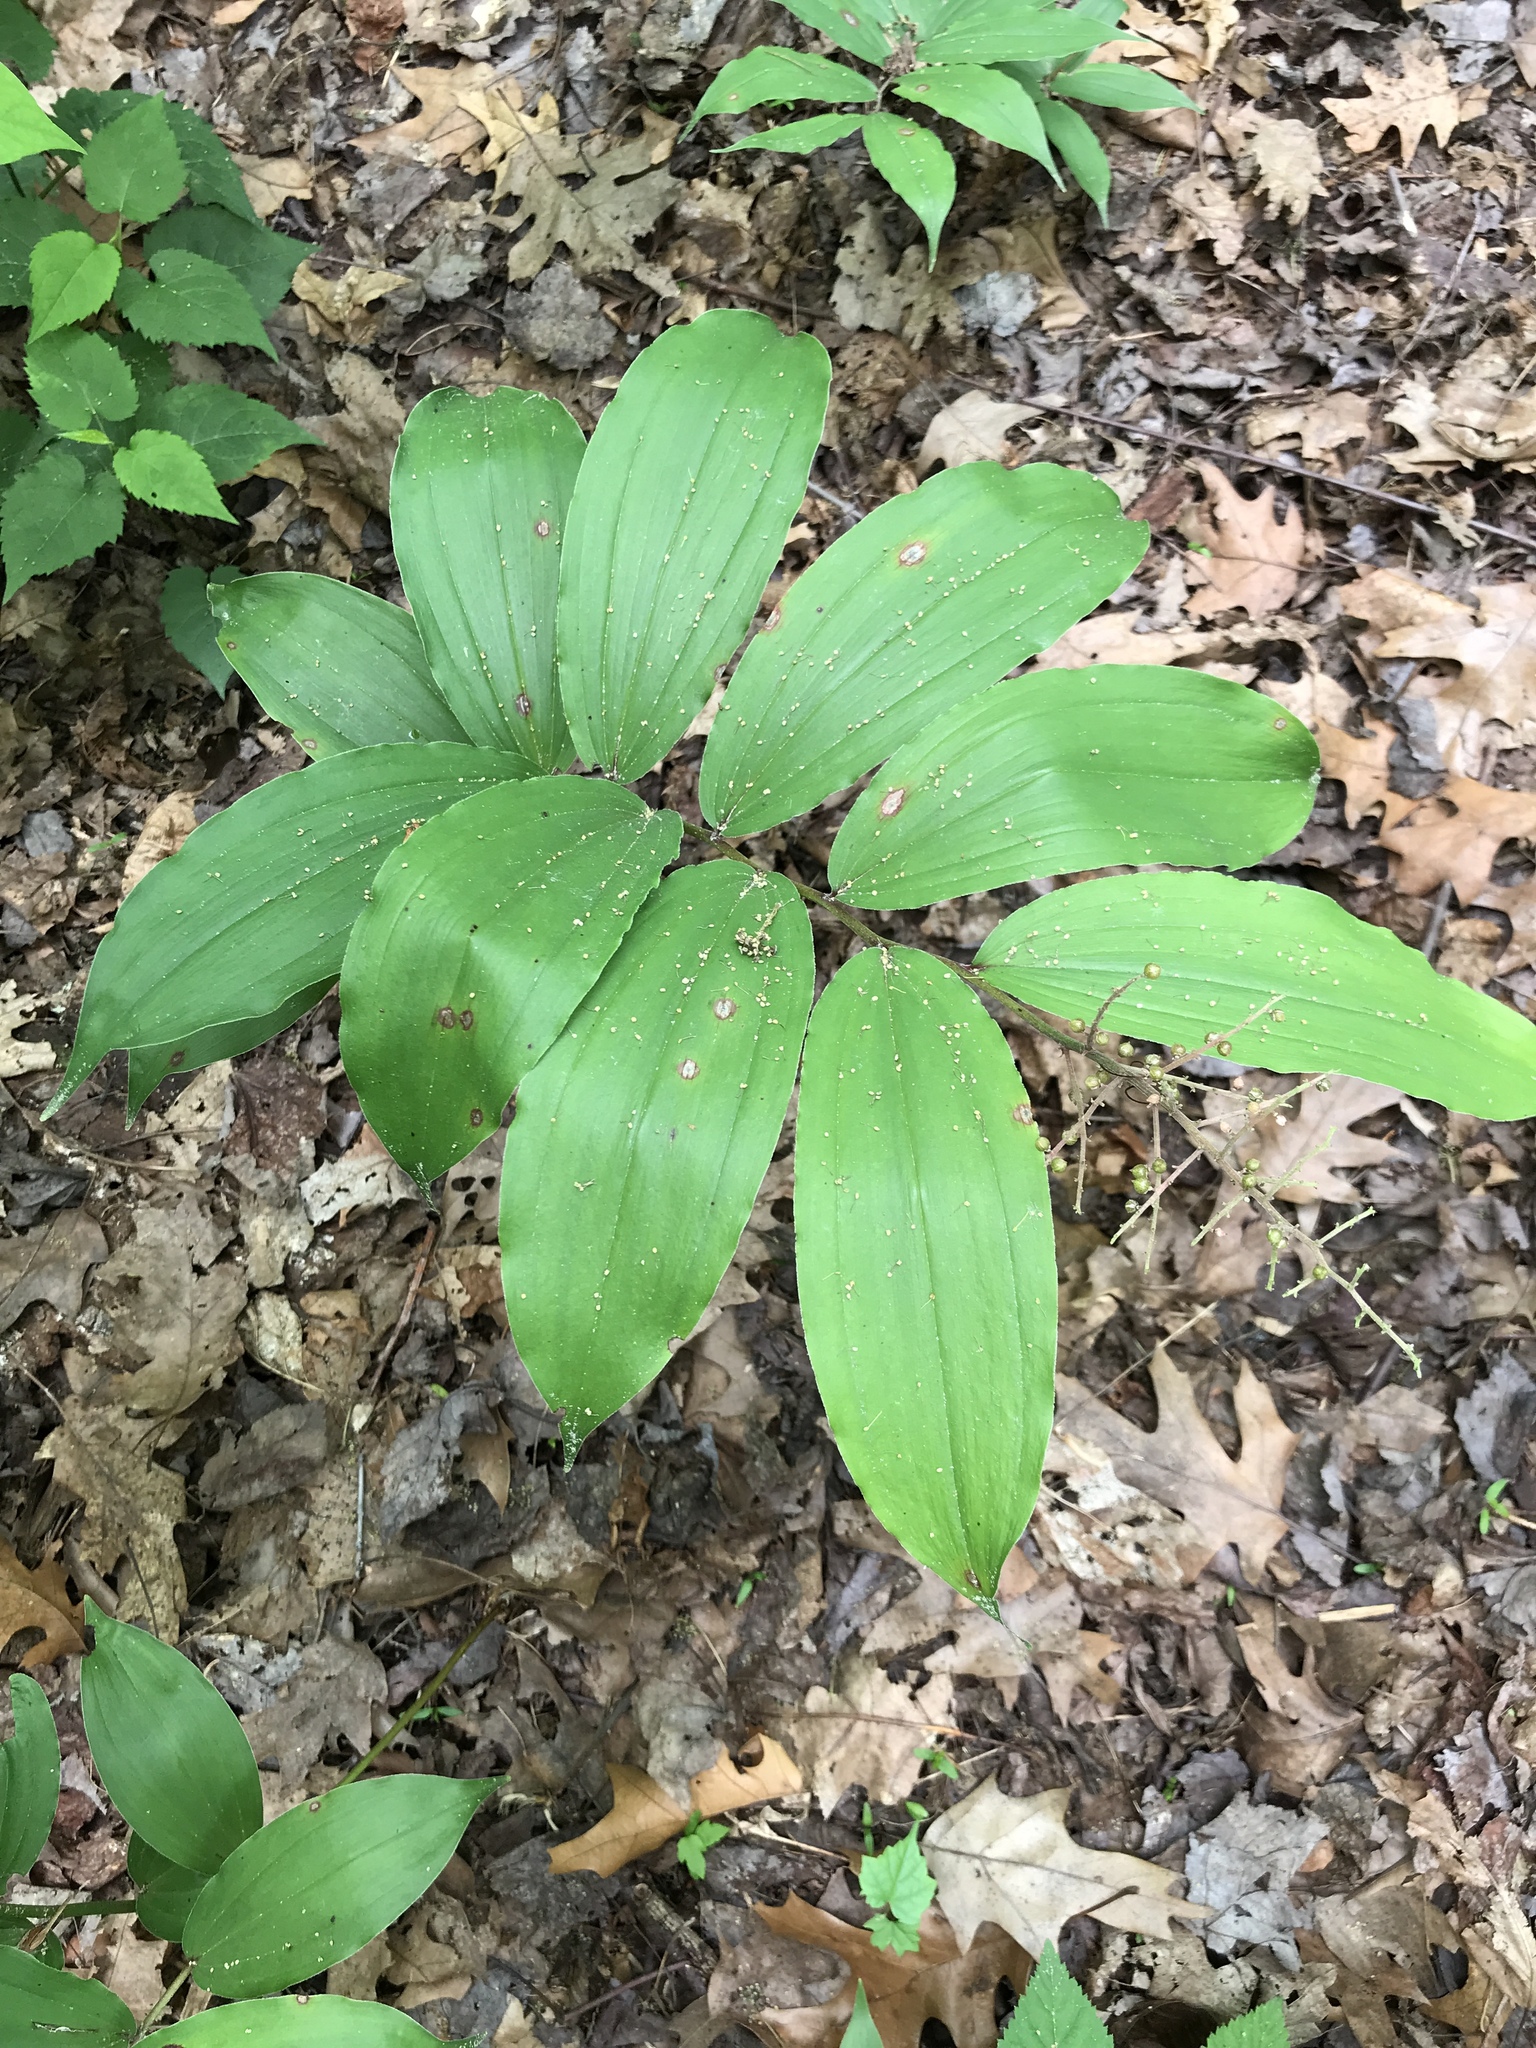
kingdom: Plantae
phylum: Tracheophyta
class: Liliopsida
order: Asparagales
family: Asparagaceae
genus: Maianthemum
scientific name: Maianthemum racemosum
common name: False spikenard
